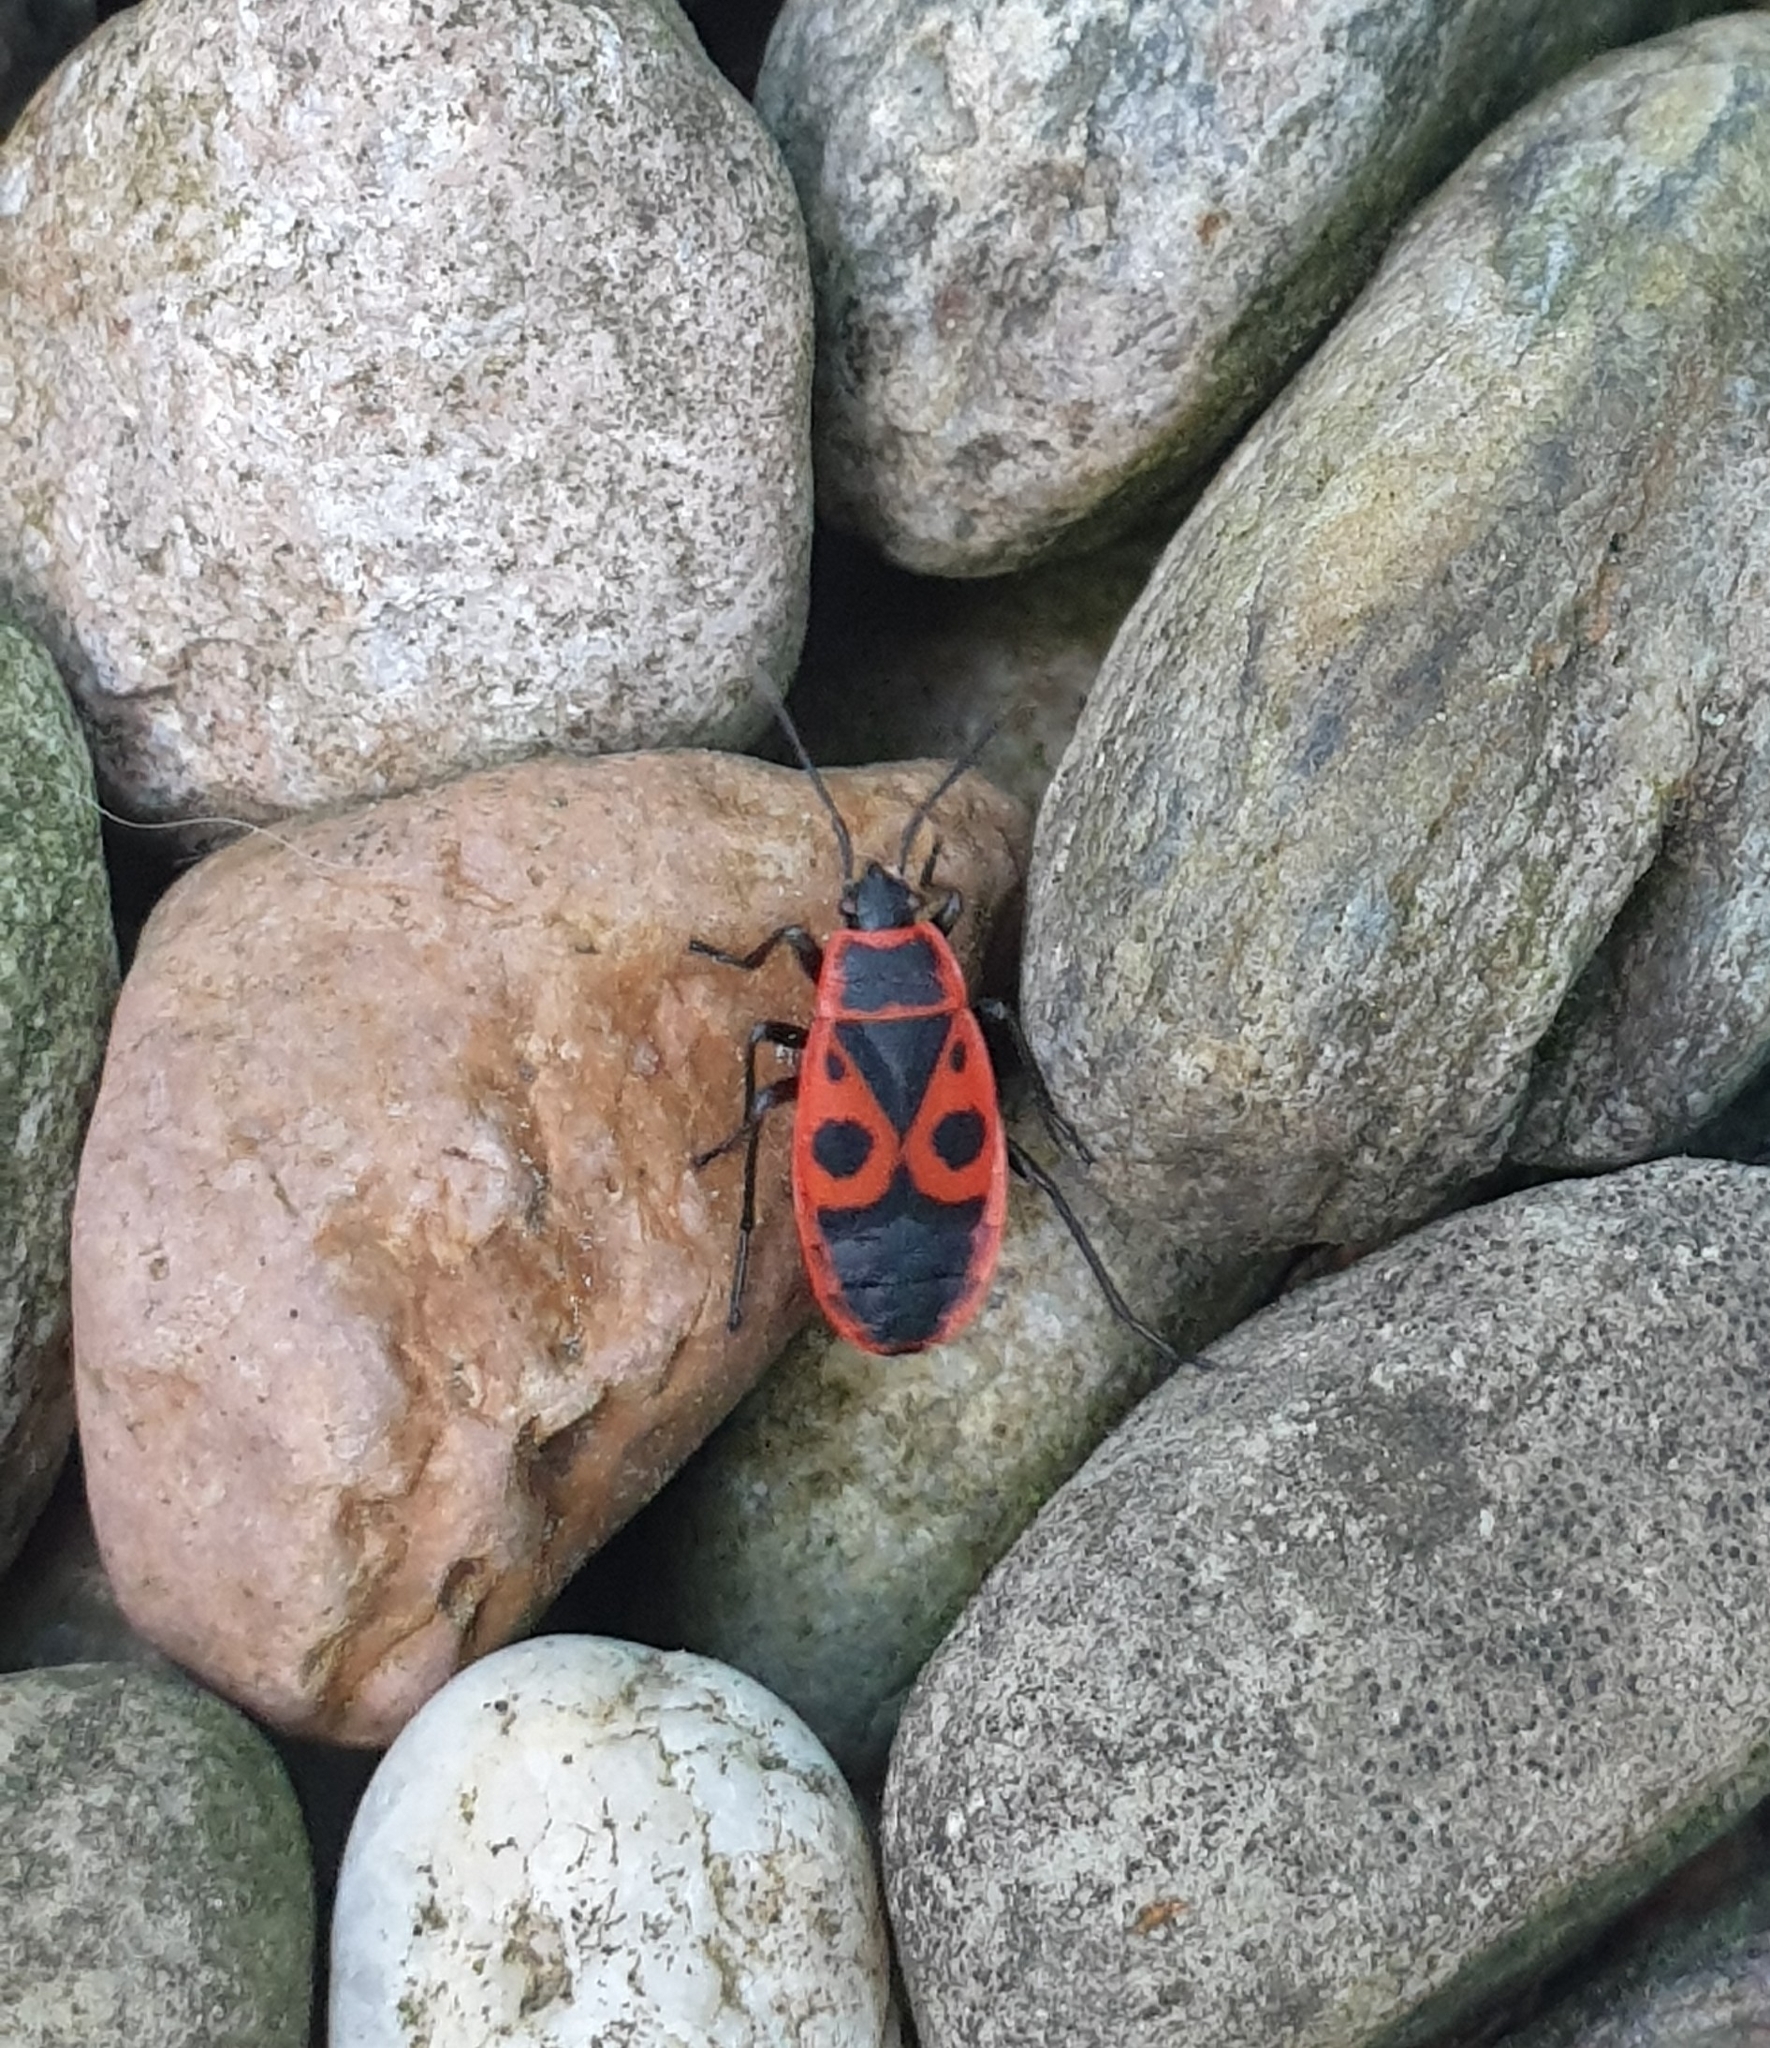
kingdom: Animalia
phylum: Arthropoda
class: Insecta
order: Hemiptera
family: Pyrrhocoridae
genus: Pyrrhocoris
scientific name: Pyrrhocoris apterus
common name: Firebug
